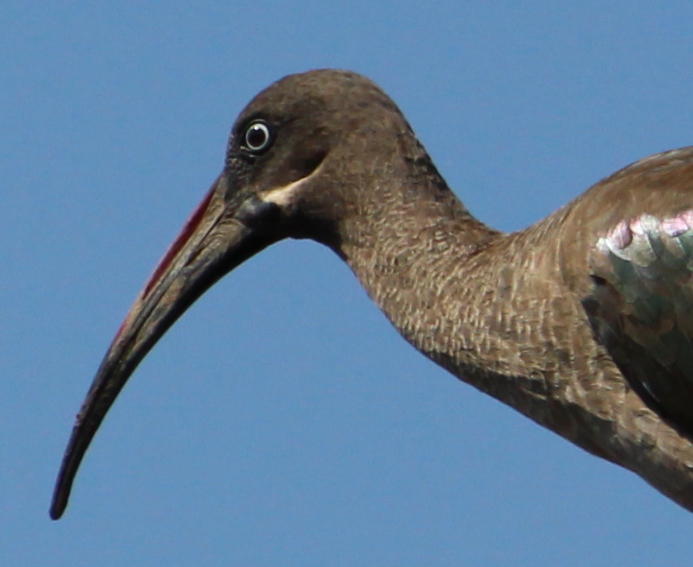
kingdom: Animalia
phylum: Chordata
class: Aves
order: Pelecaniformes
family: Threskiornithidae
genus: Bostrychia
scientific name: Bostrychia hagedash
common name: Hadada ibis
